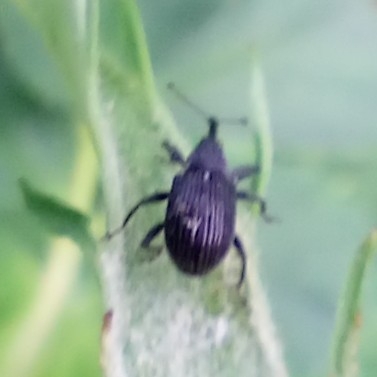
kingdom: Animalia
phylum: Arthropoda
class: Insecta
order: Coleoptera
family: Curculionidae
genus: Anthonomus
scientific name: Anthonomus rubi
